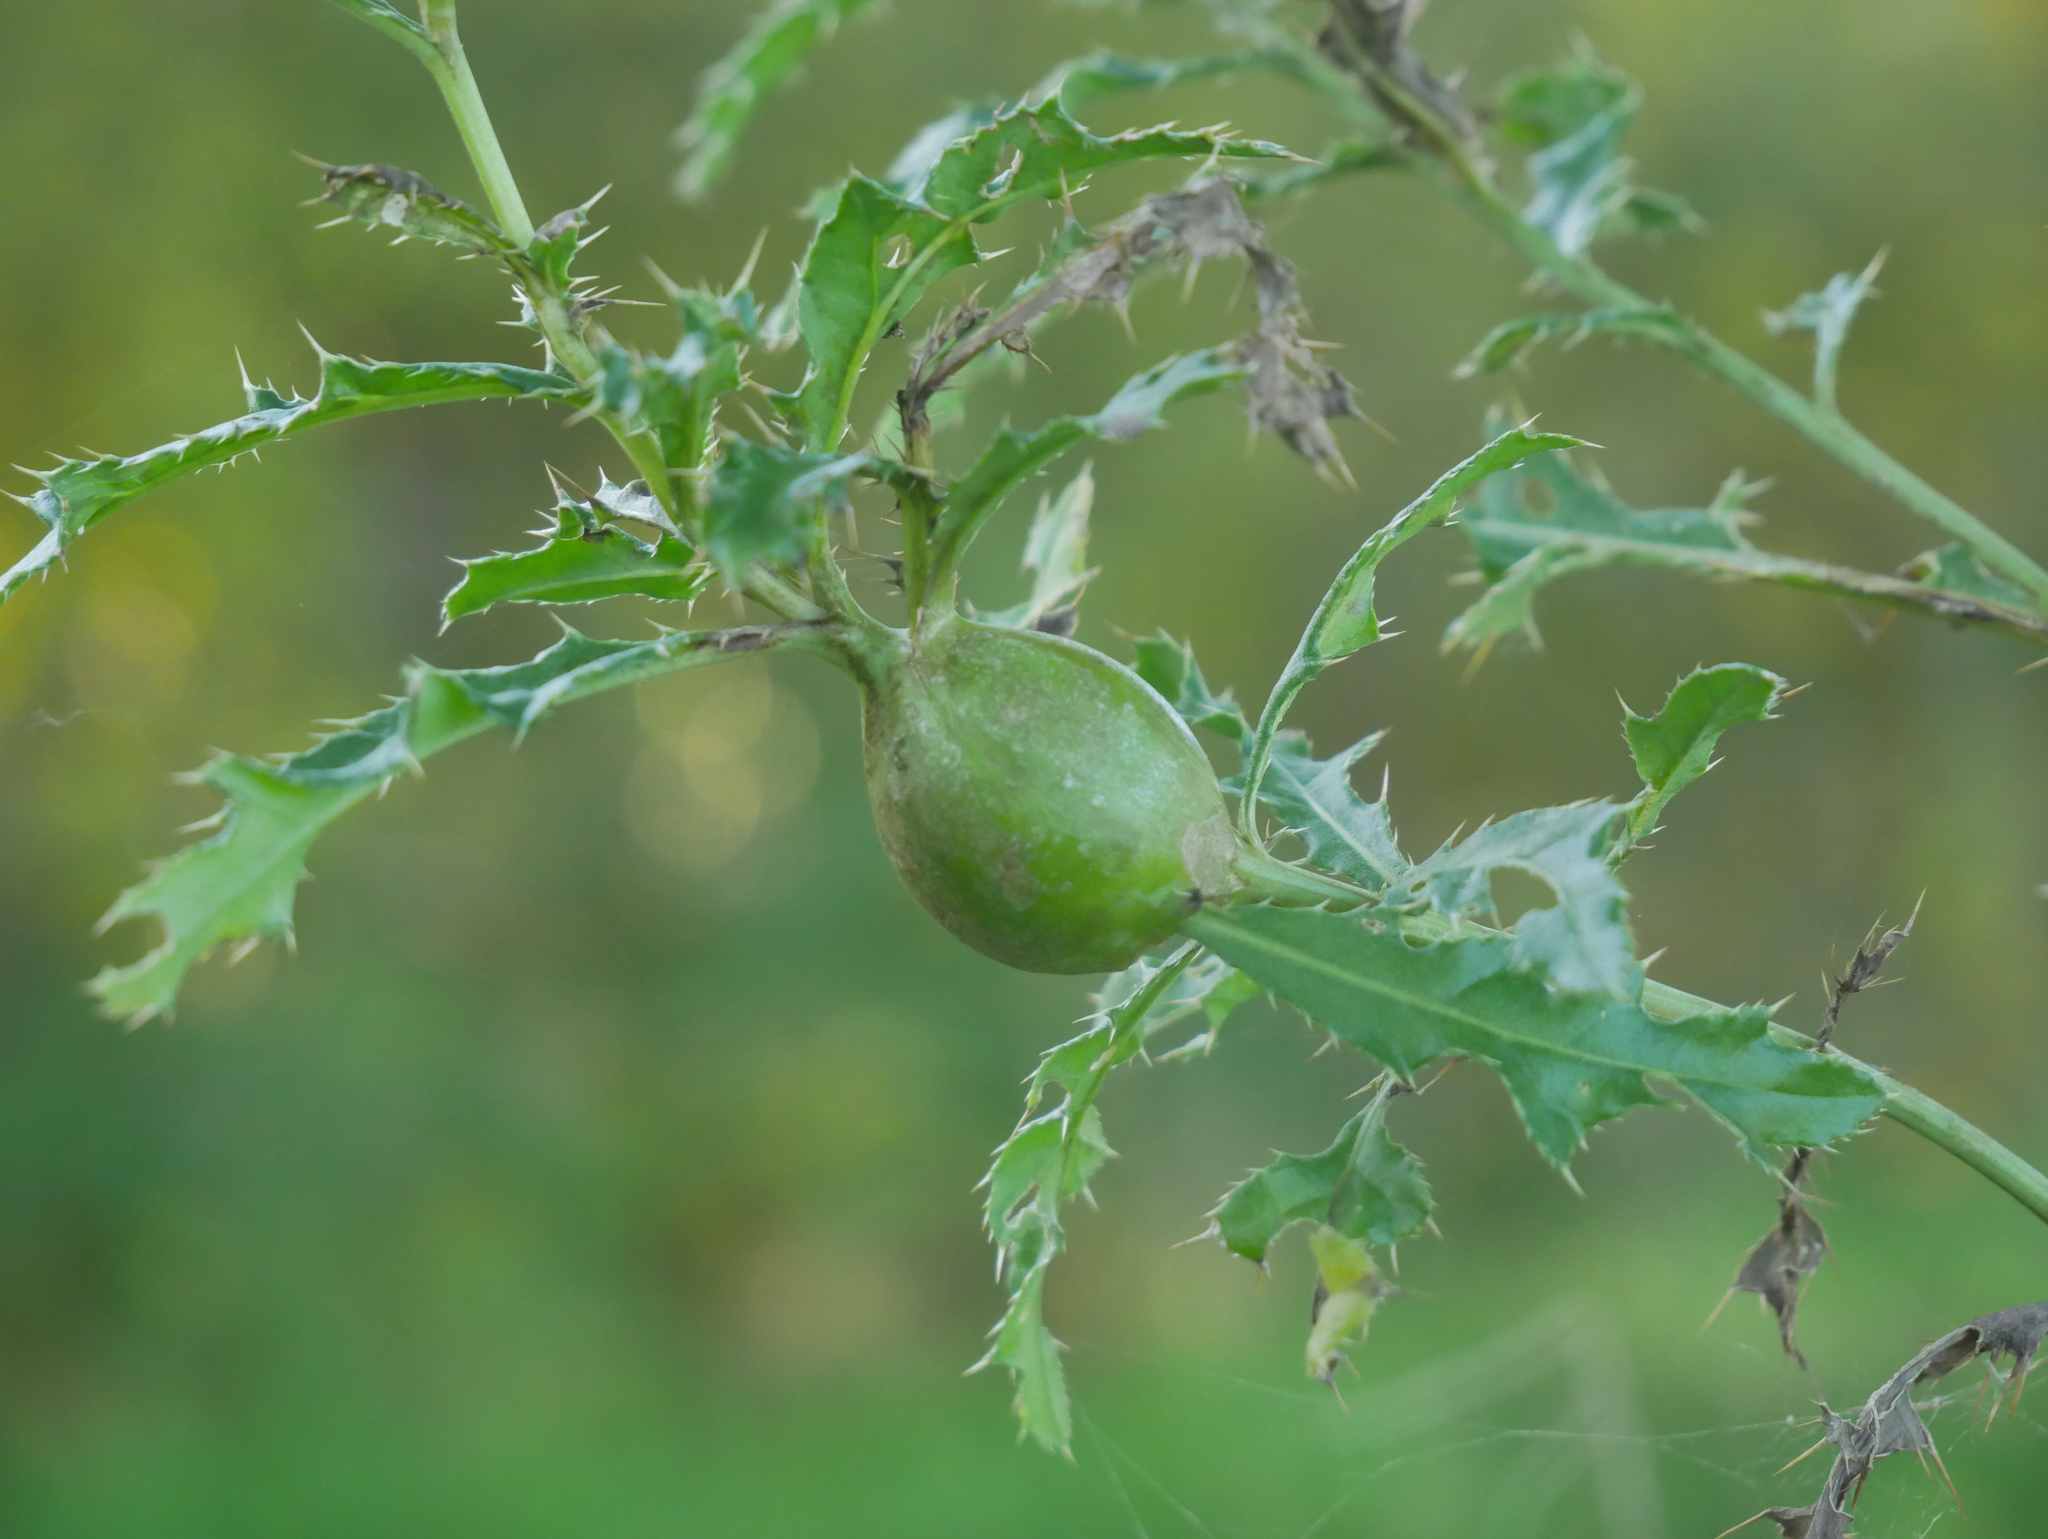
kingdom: Animalia
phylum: Arthropoda
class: Insecta
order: Diptera
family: Tephritidae
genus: Urophora
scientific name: Urophora cardui
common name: Fruit fly
